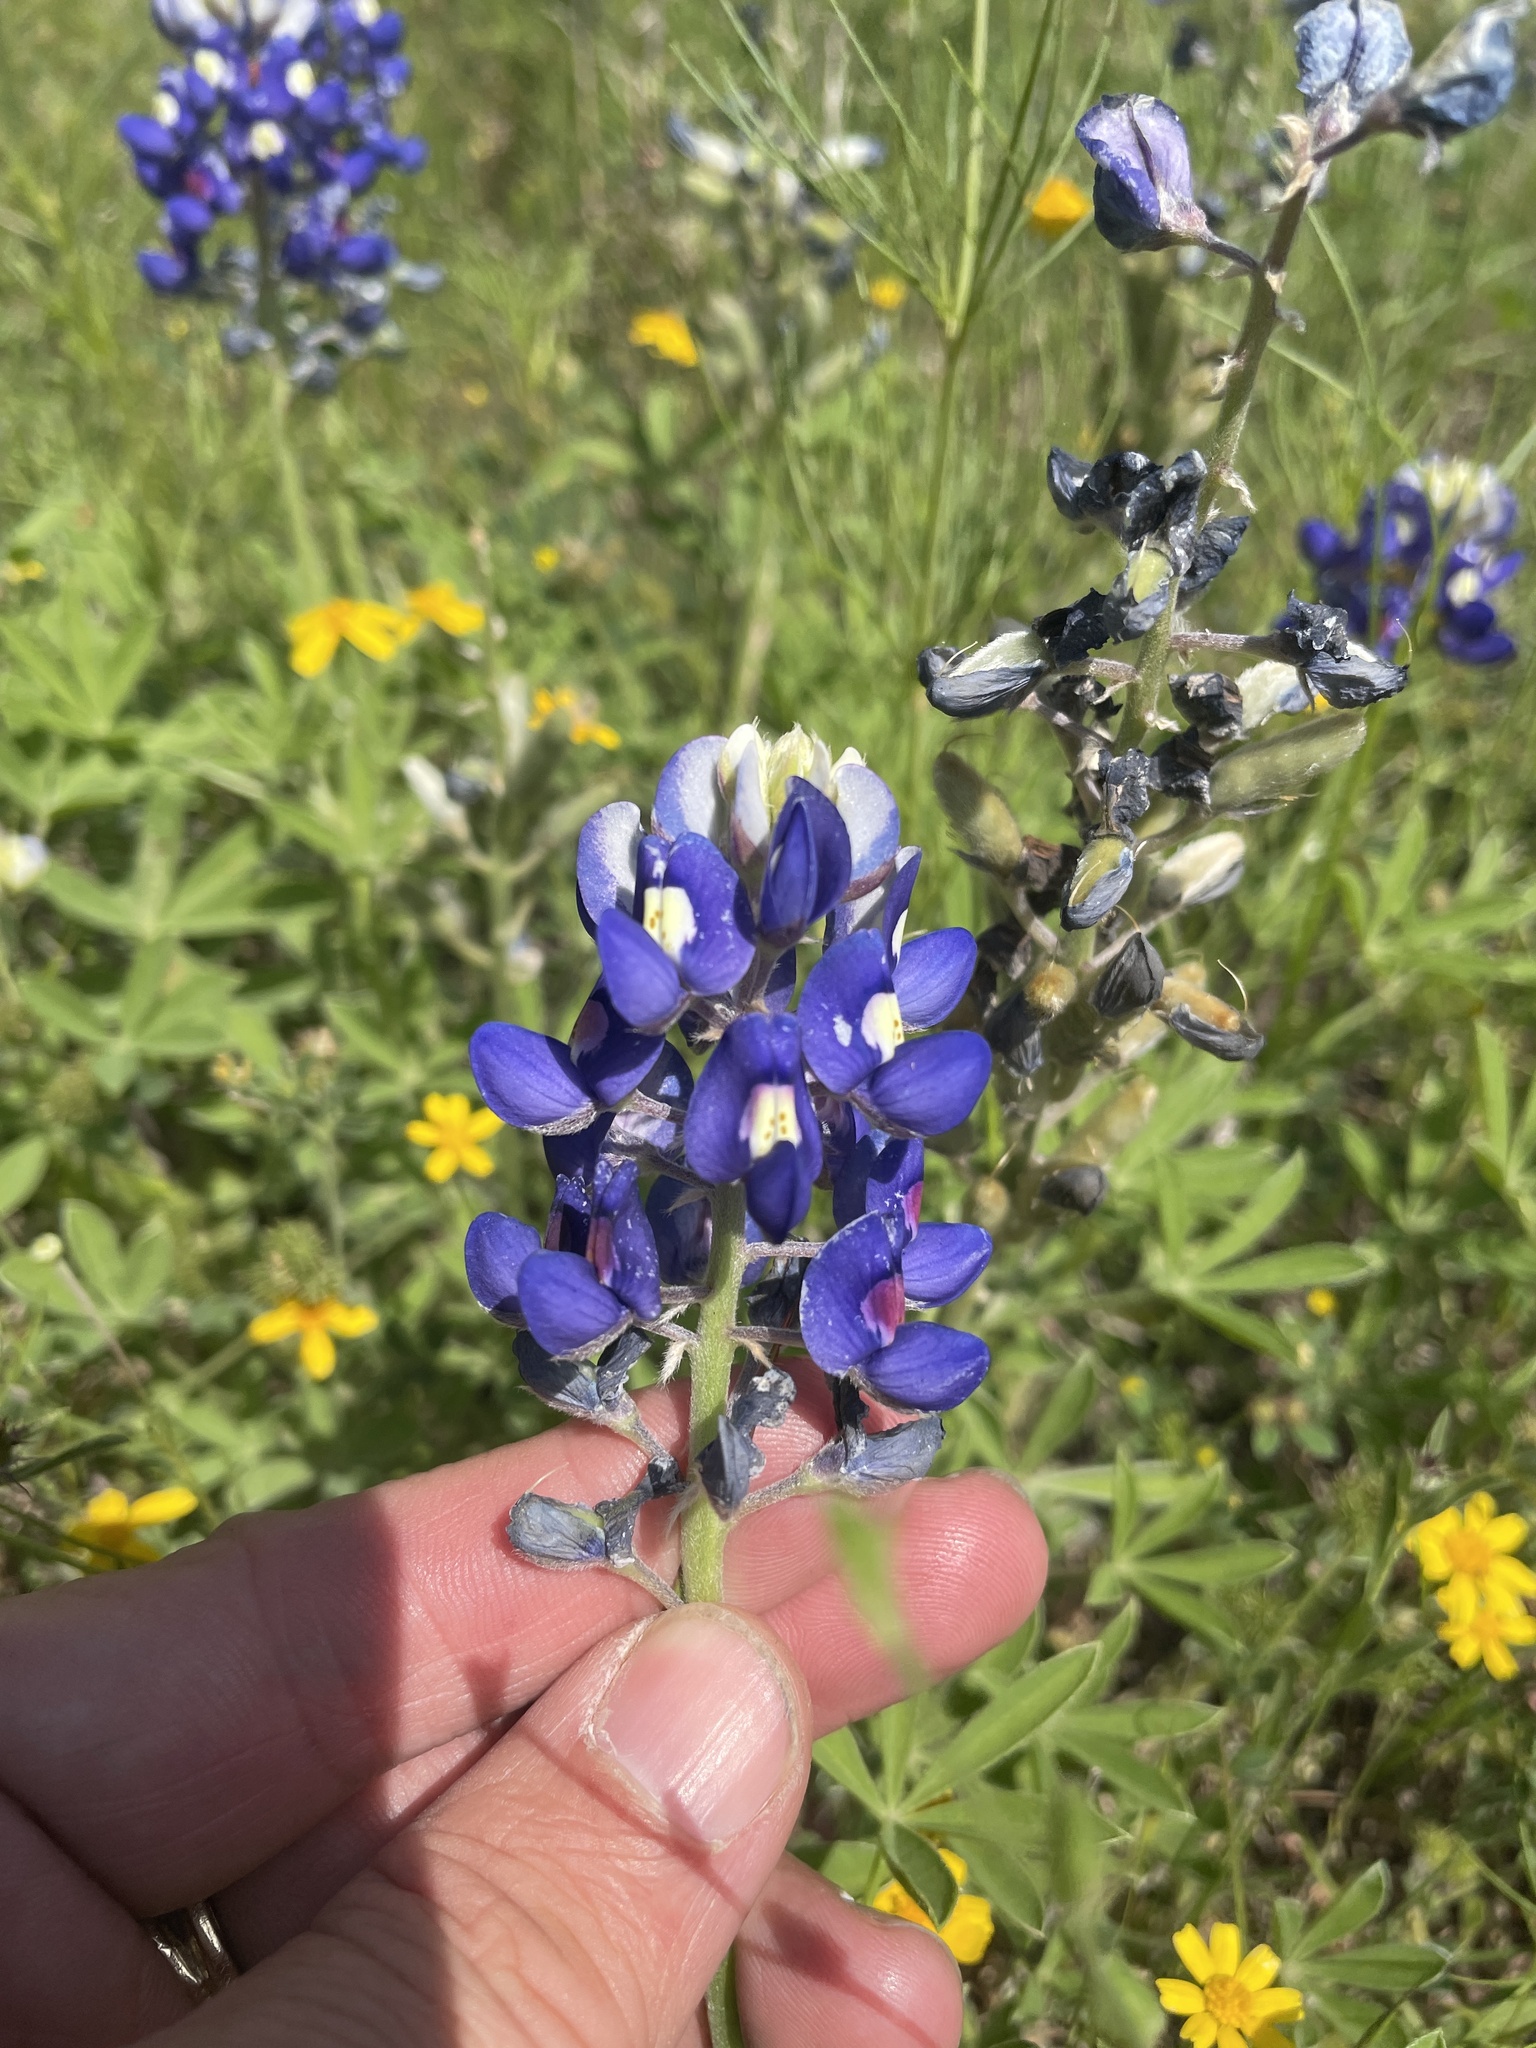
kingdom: Plantae
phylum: Tracheophyta
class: Magnoliopsida
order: Fabales
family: Fabaceae
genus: Lupinus
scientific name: Lupinus texensis
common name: Texas bluebonnet
